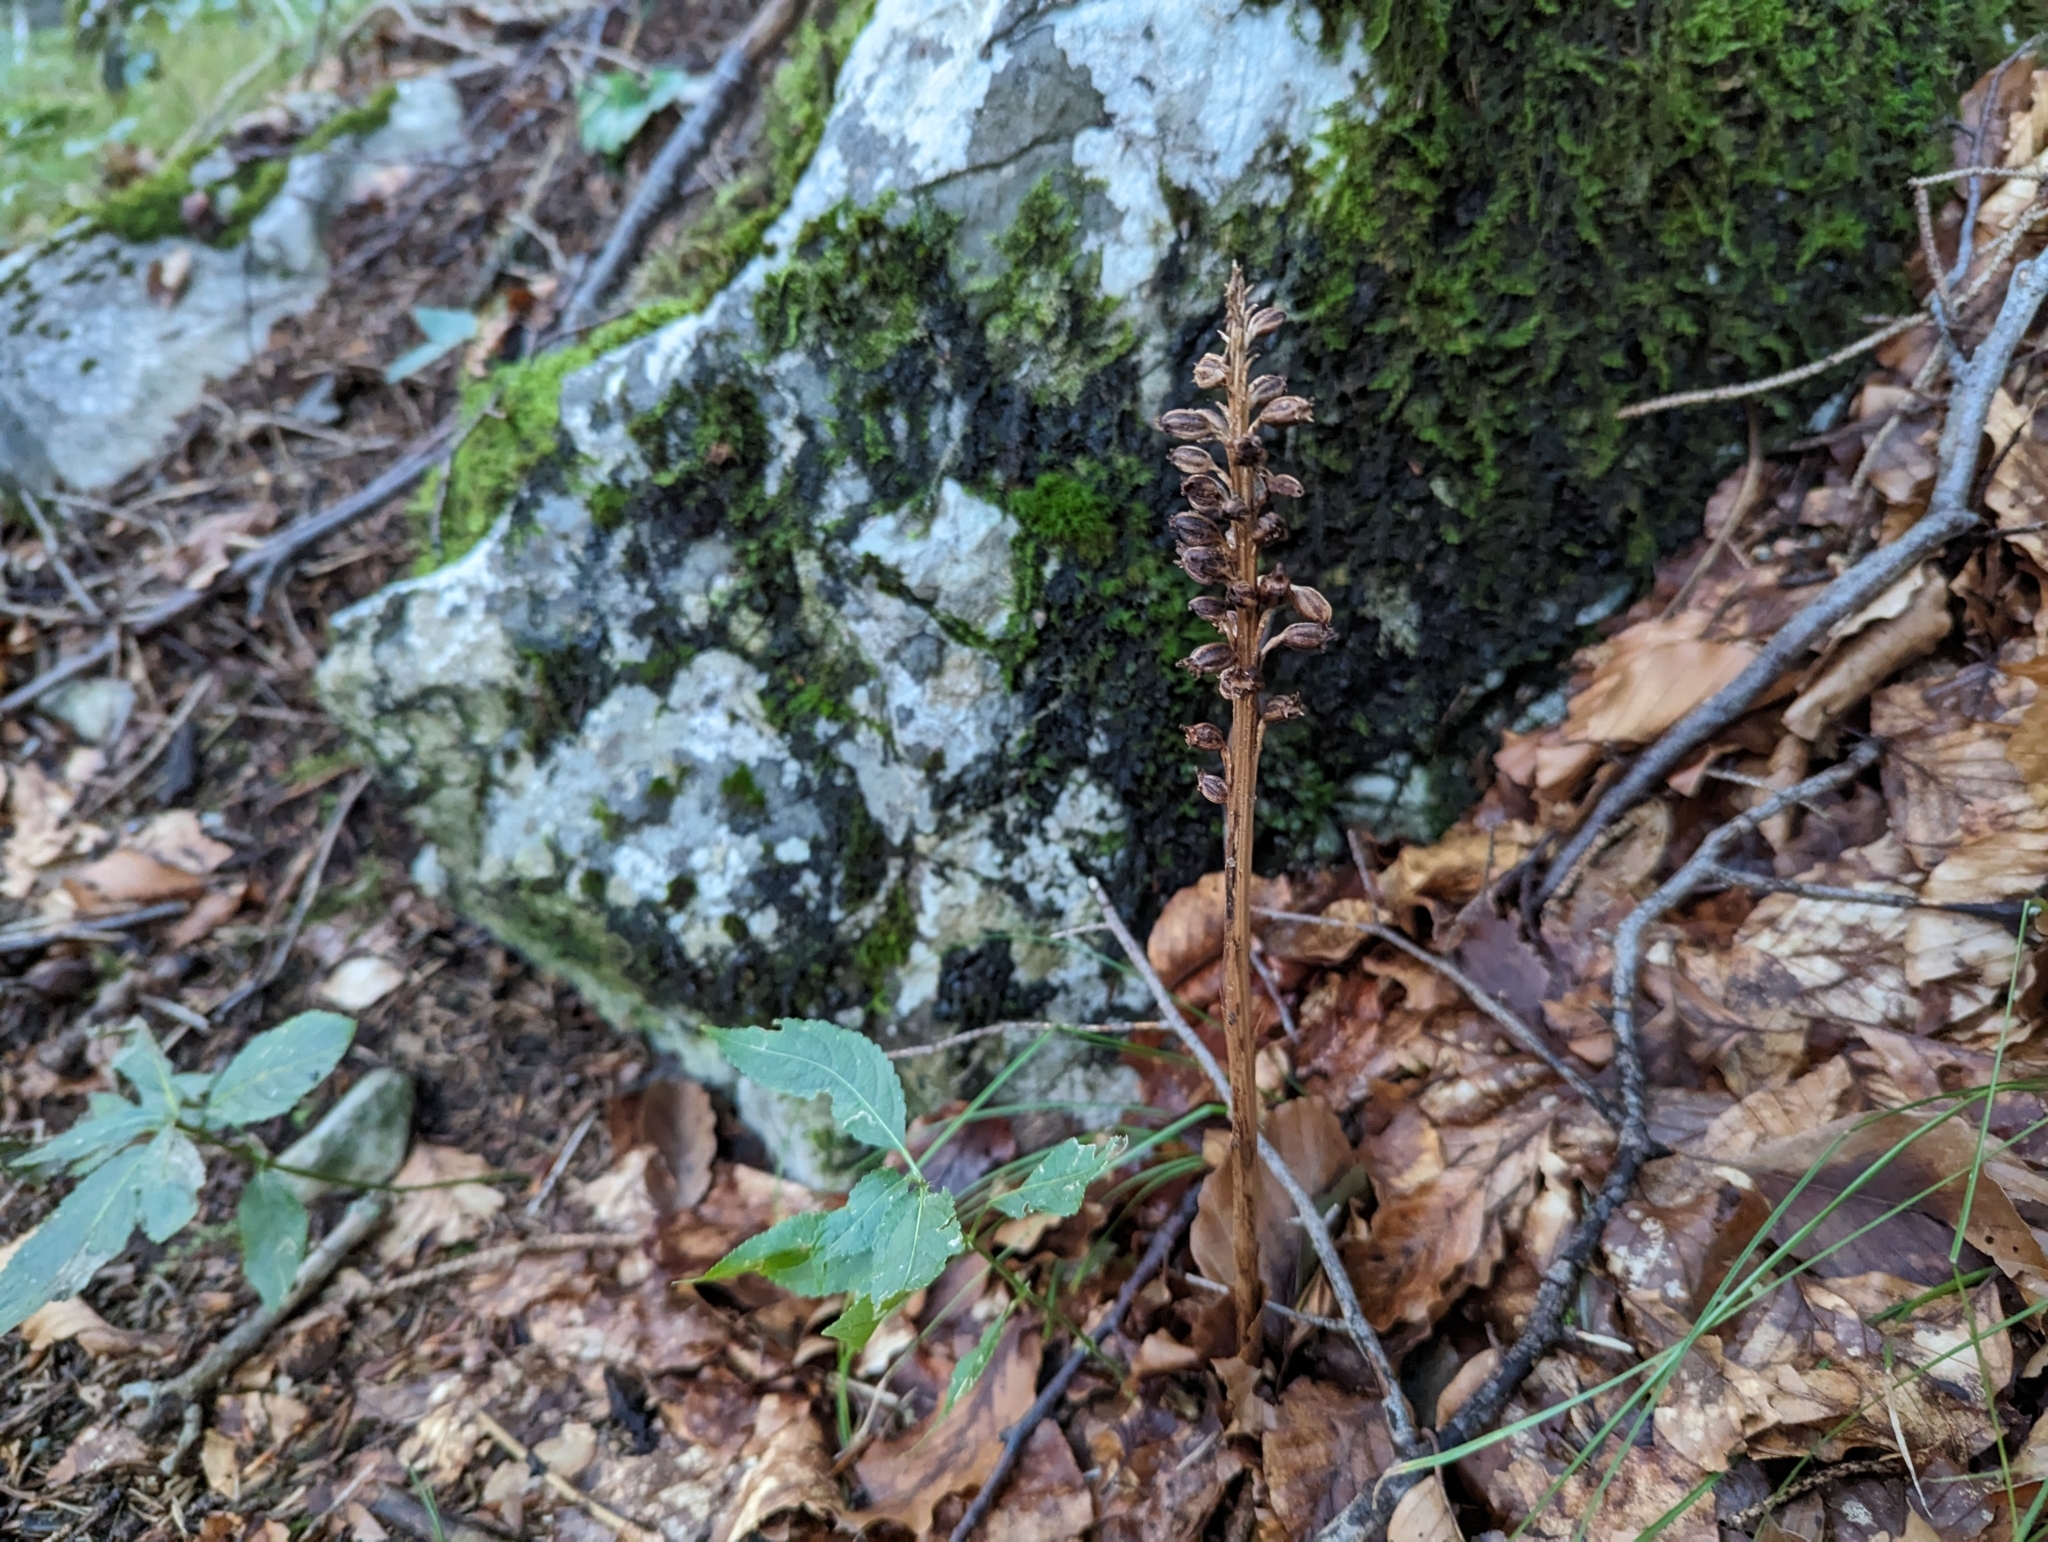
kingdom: Plantae
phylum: Tracheophyta
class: Liliopsida
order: Asparagales
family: Orchidaceae
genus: Neottia
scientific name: Neottia nidus-avis
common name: Bird's-nest orchid
